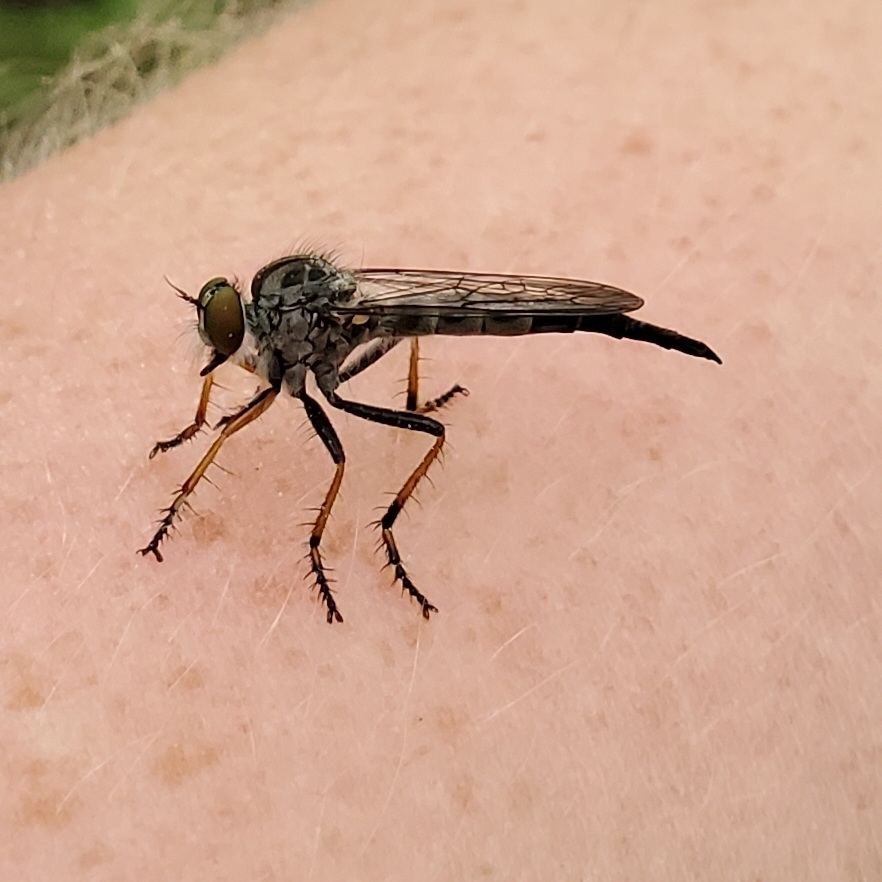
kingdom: Animalia
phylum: Arthropoda
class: Insecta
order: Diptera
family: Asilidae
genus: Asilus
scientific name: Asilus flavofemoratus
